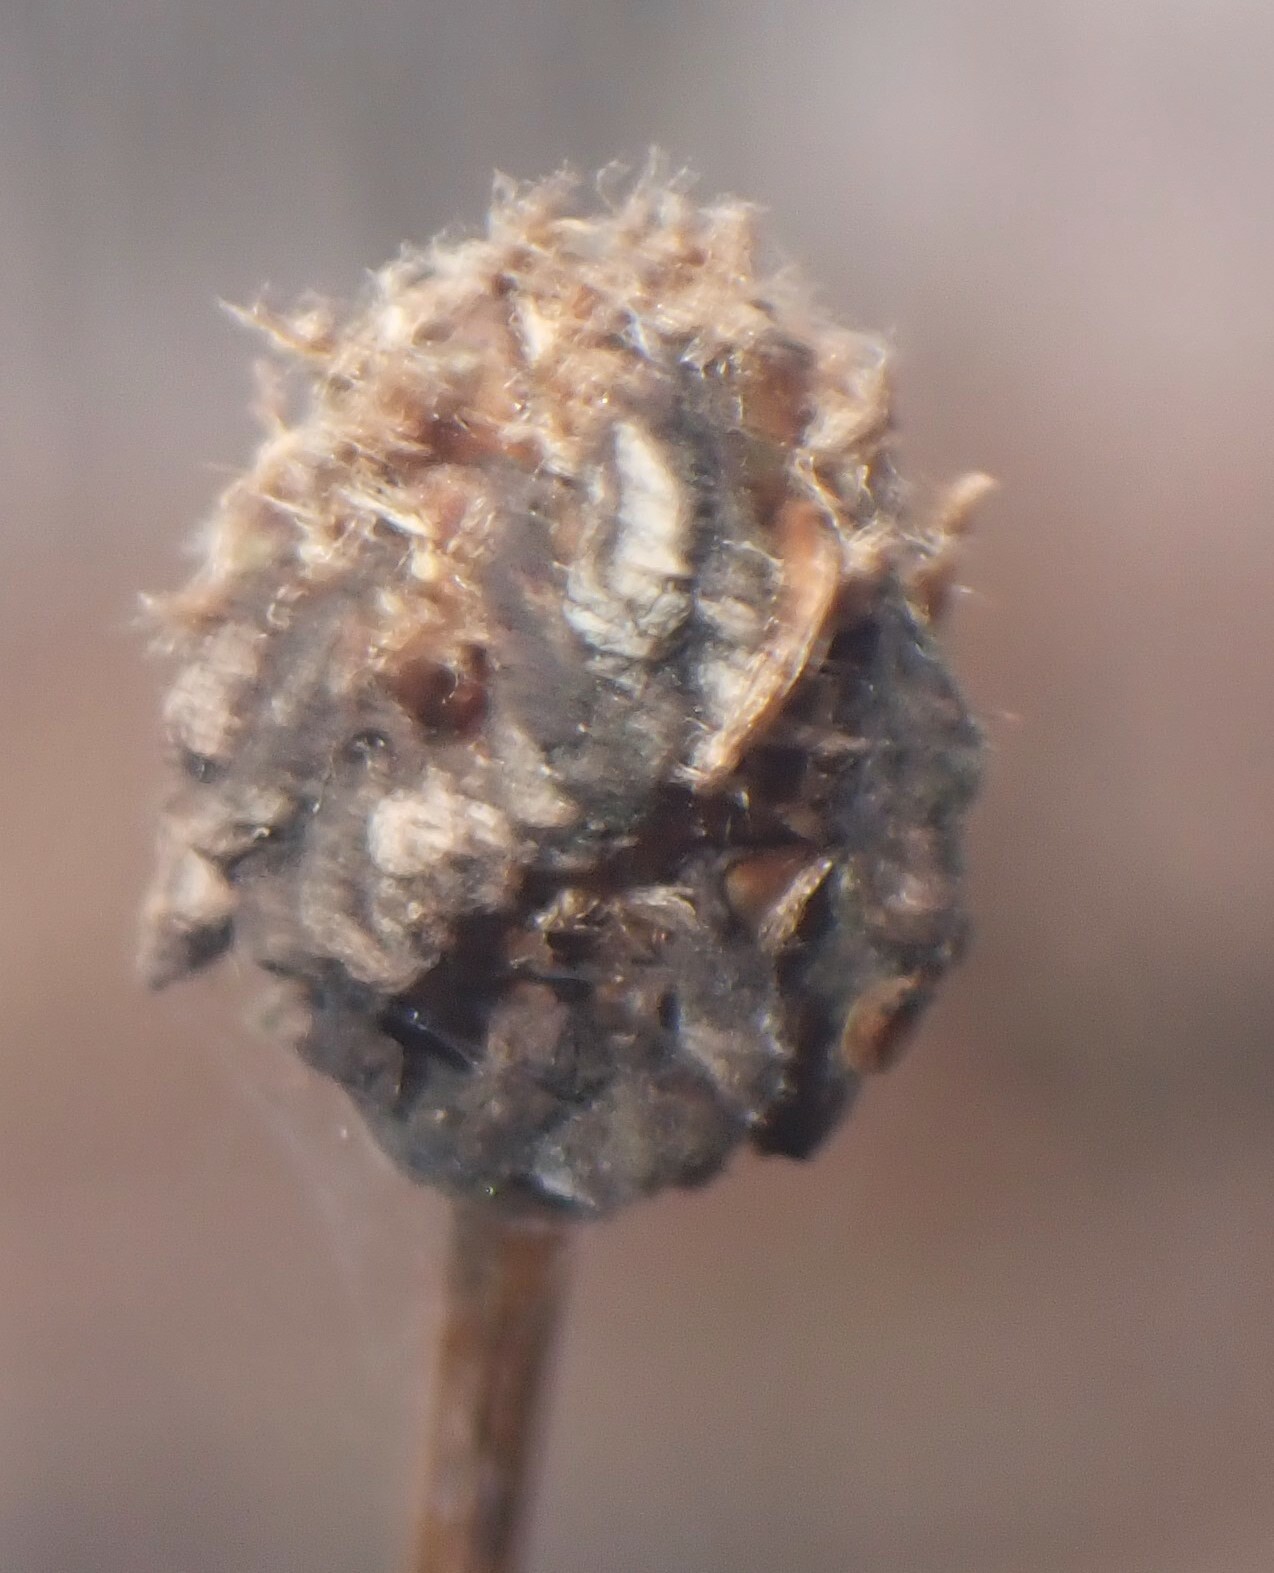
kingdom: Plantae
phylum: Tracheophyta
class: Liliopsida
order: Poales
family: Xyridaceae
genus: Xyris
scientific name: Xyris fimbriata
